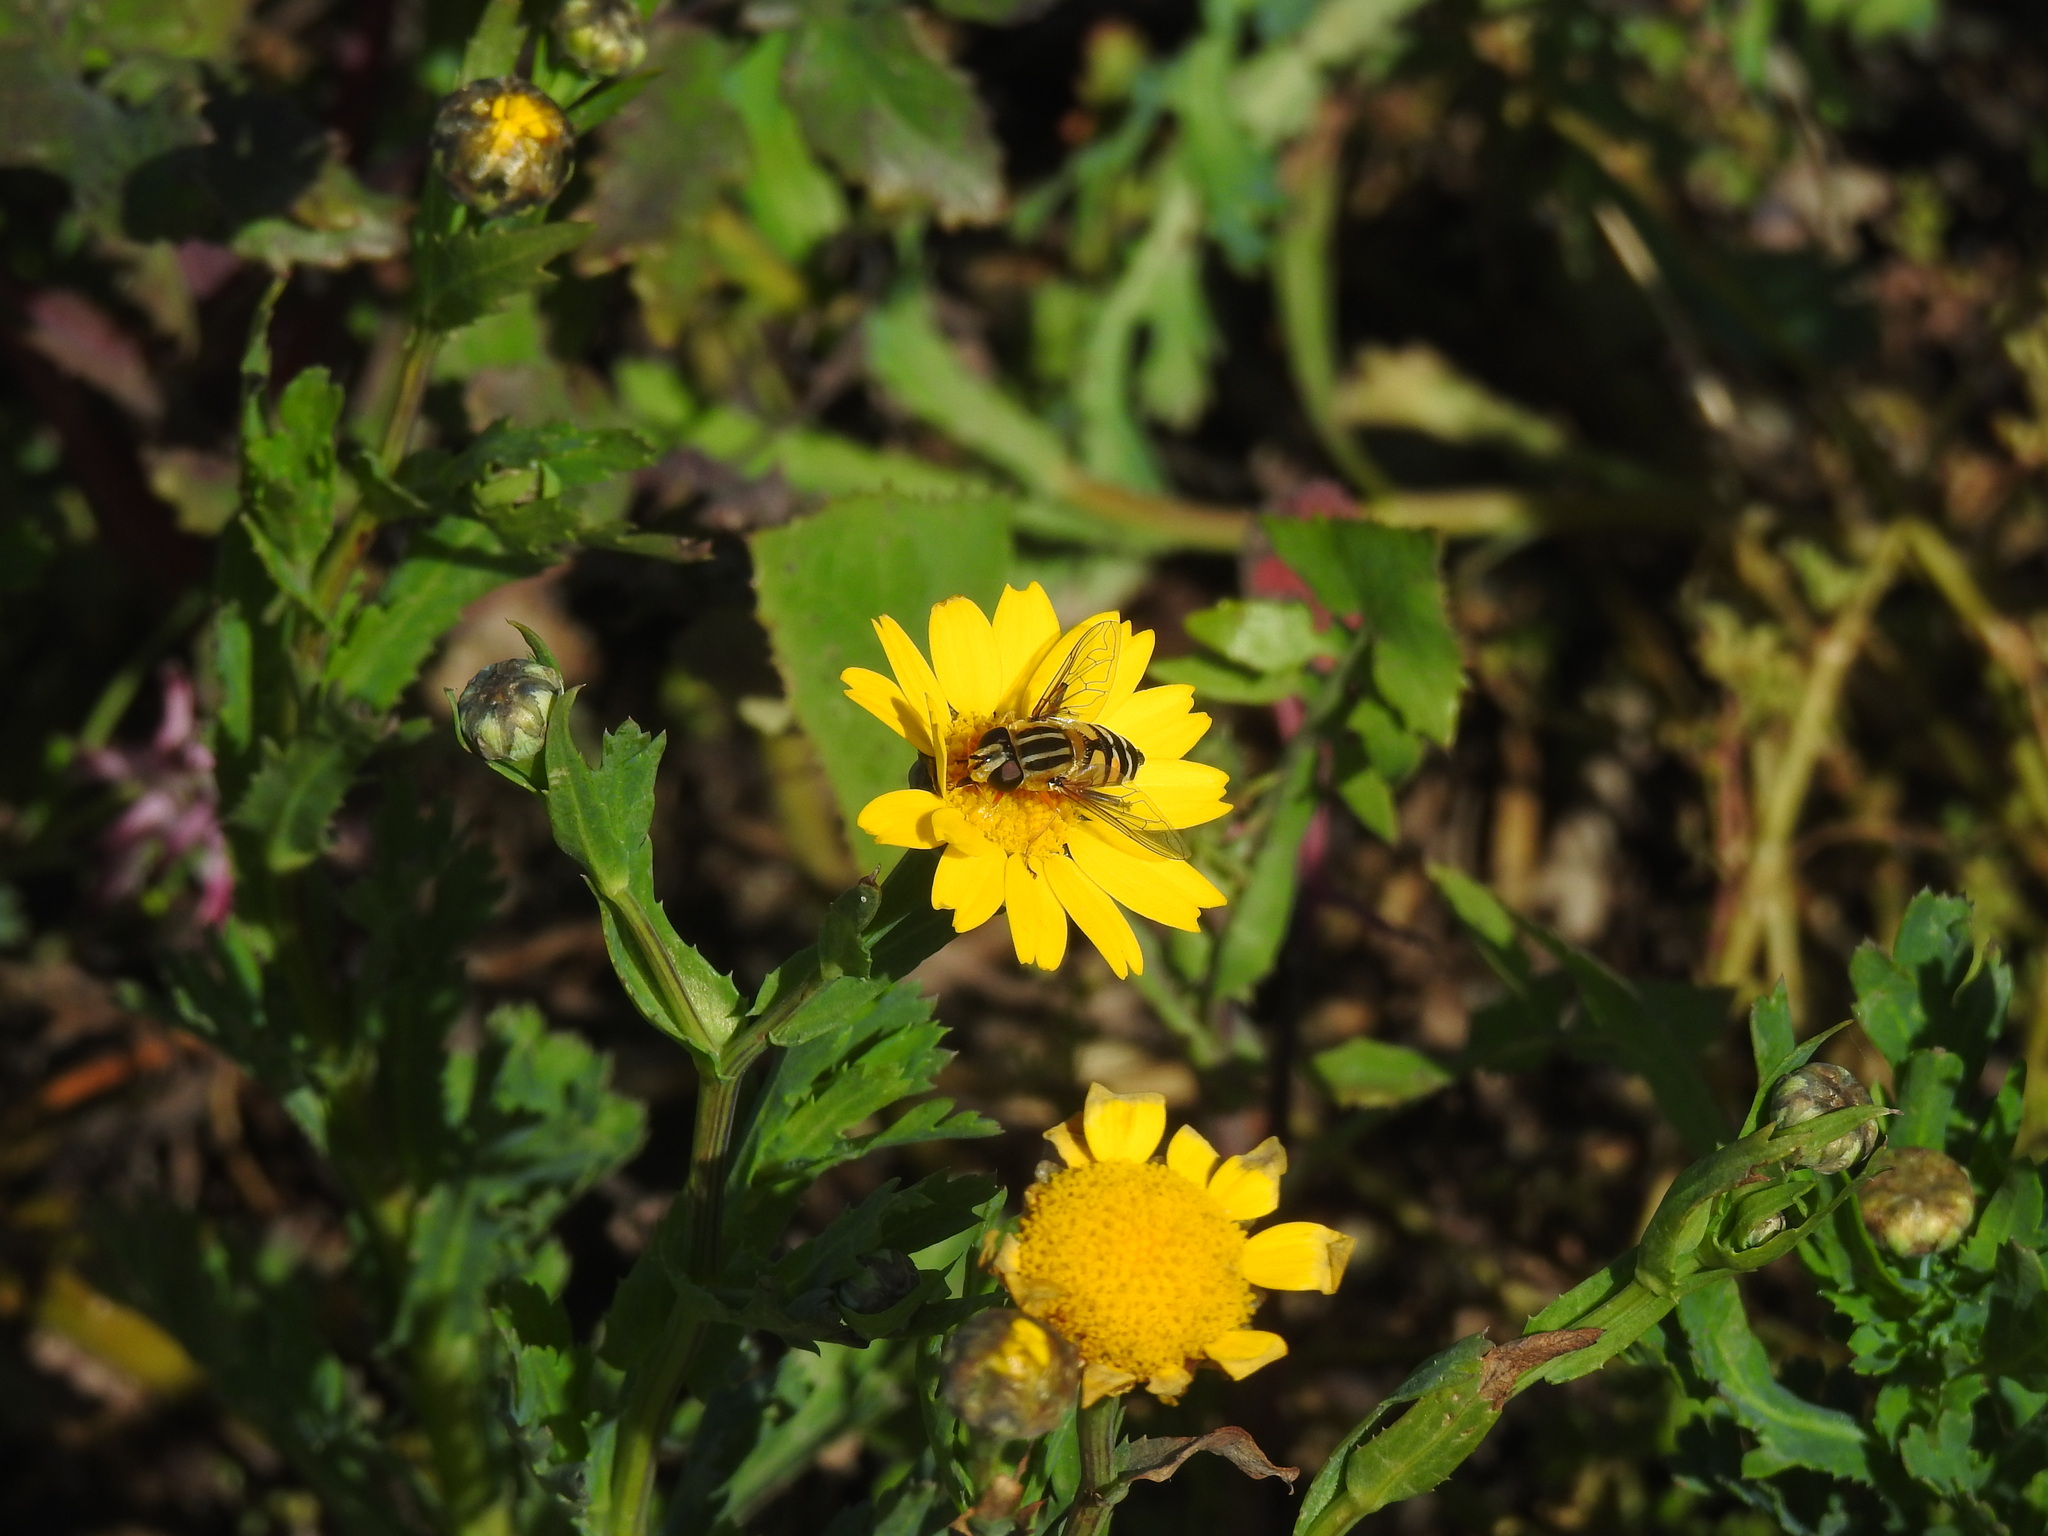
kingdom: Animalia
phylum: Arthropoda
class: Insecta
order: Diptera
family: Syrphidae
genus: Helophilus
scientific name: Helophilus trivittatus
